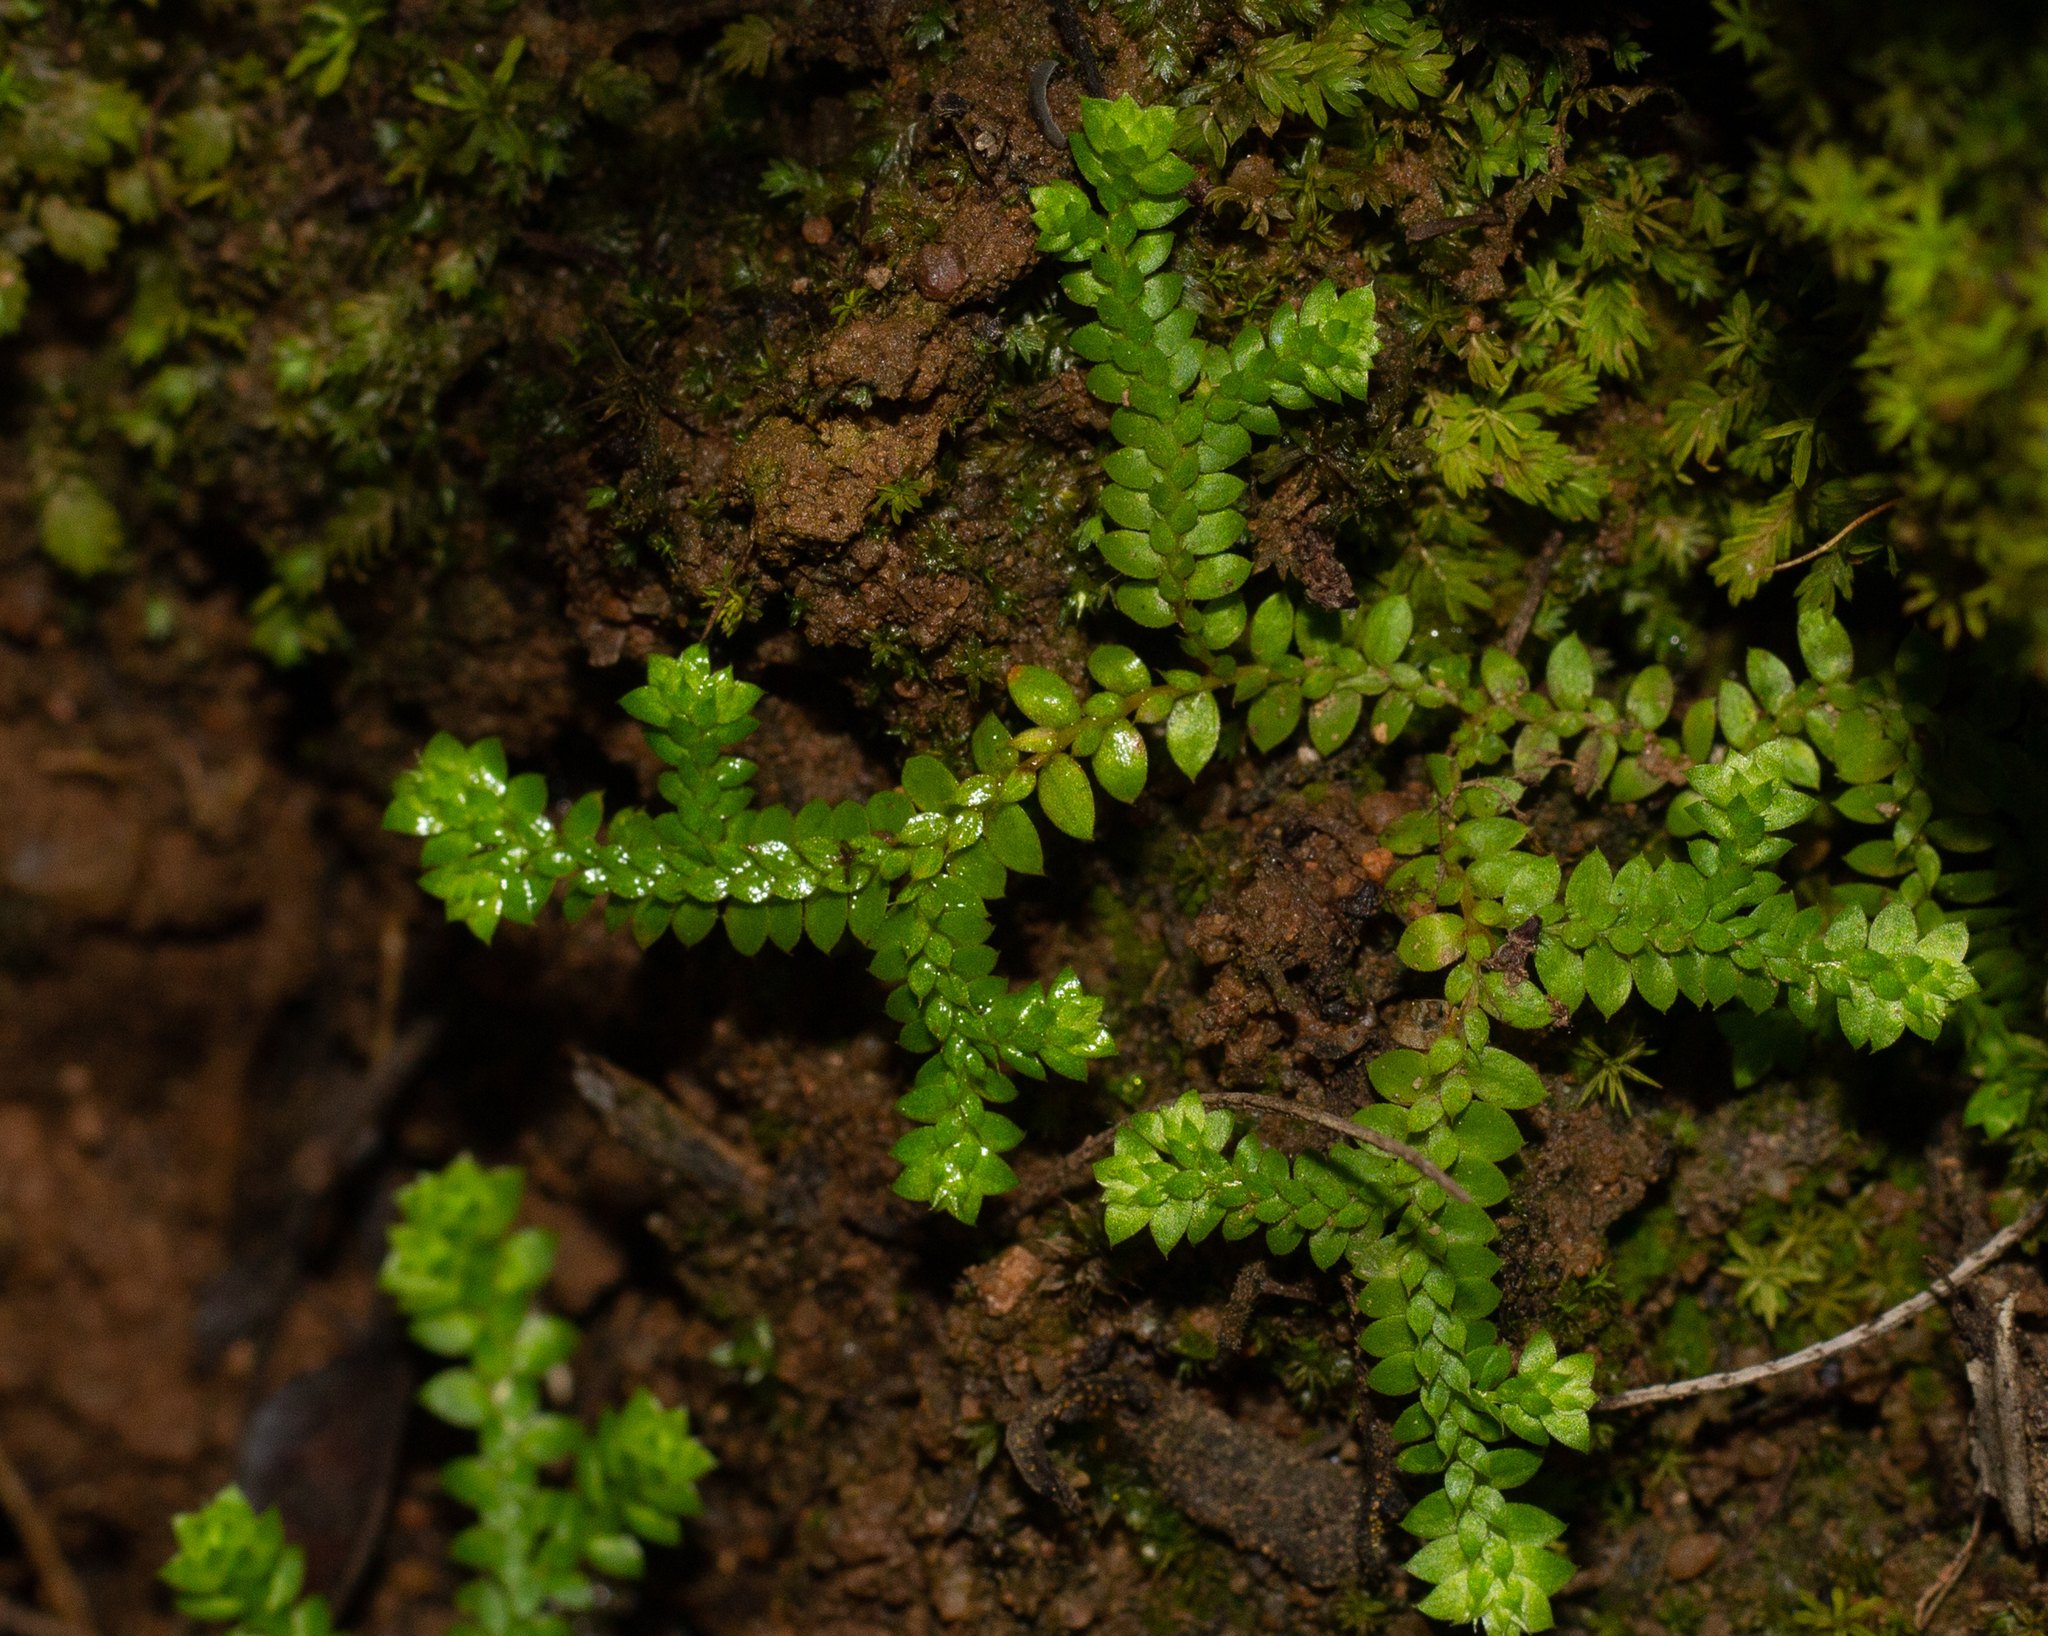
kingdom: Plantae
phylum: Tracheophyta
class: Lycopodiopsida
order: Selaginellales
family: Selaginellaceae
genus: Selaginella
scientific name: Selaginella denticulata
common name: Toothed-leaved clubmoss
